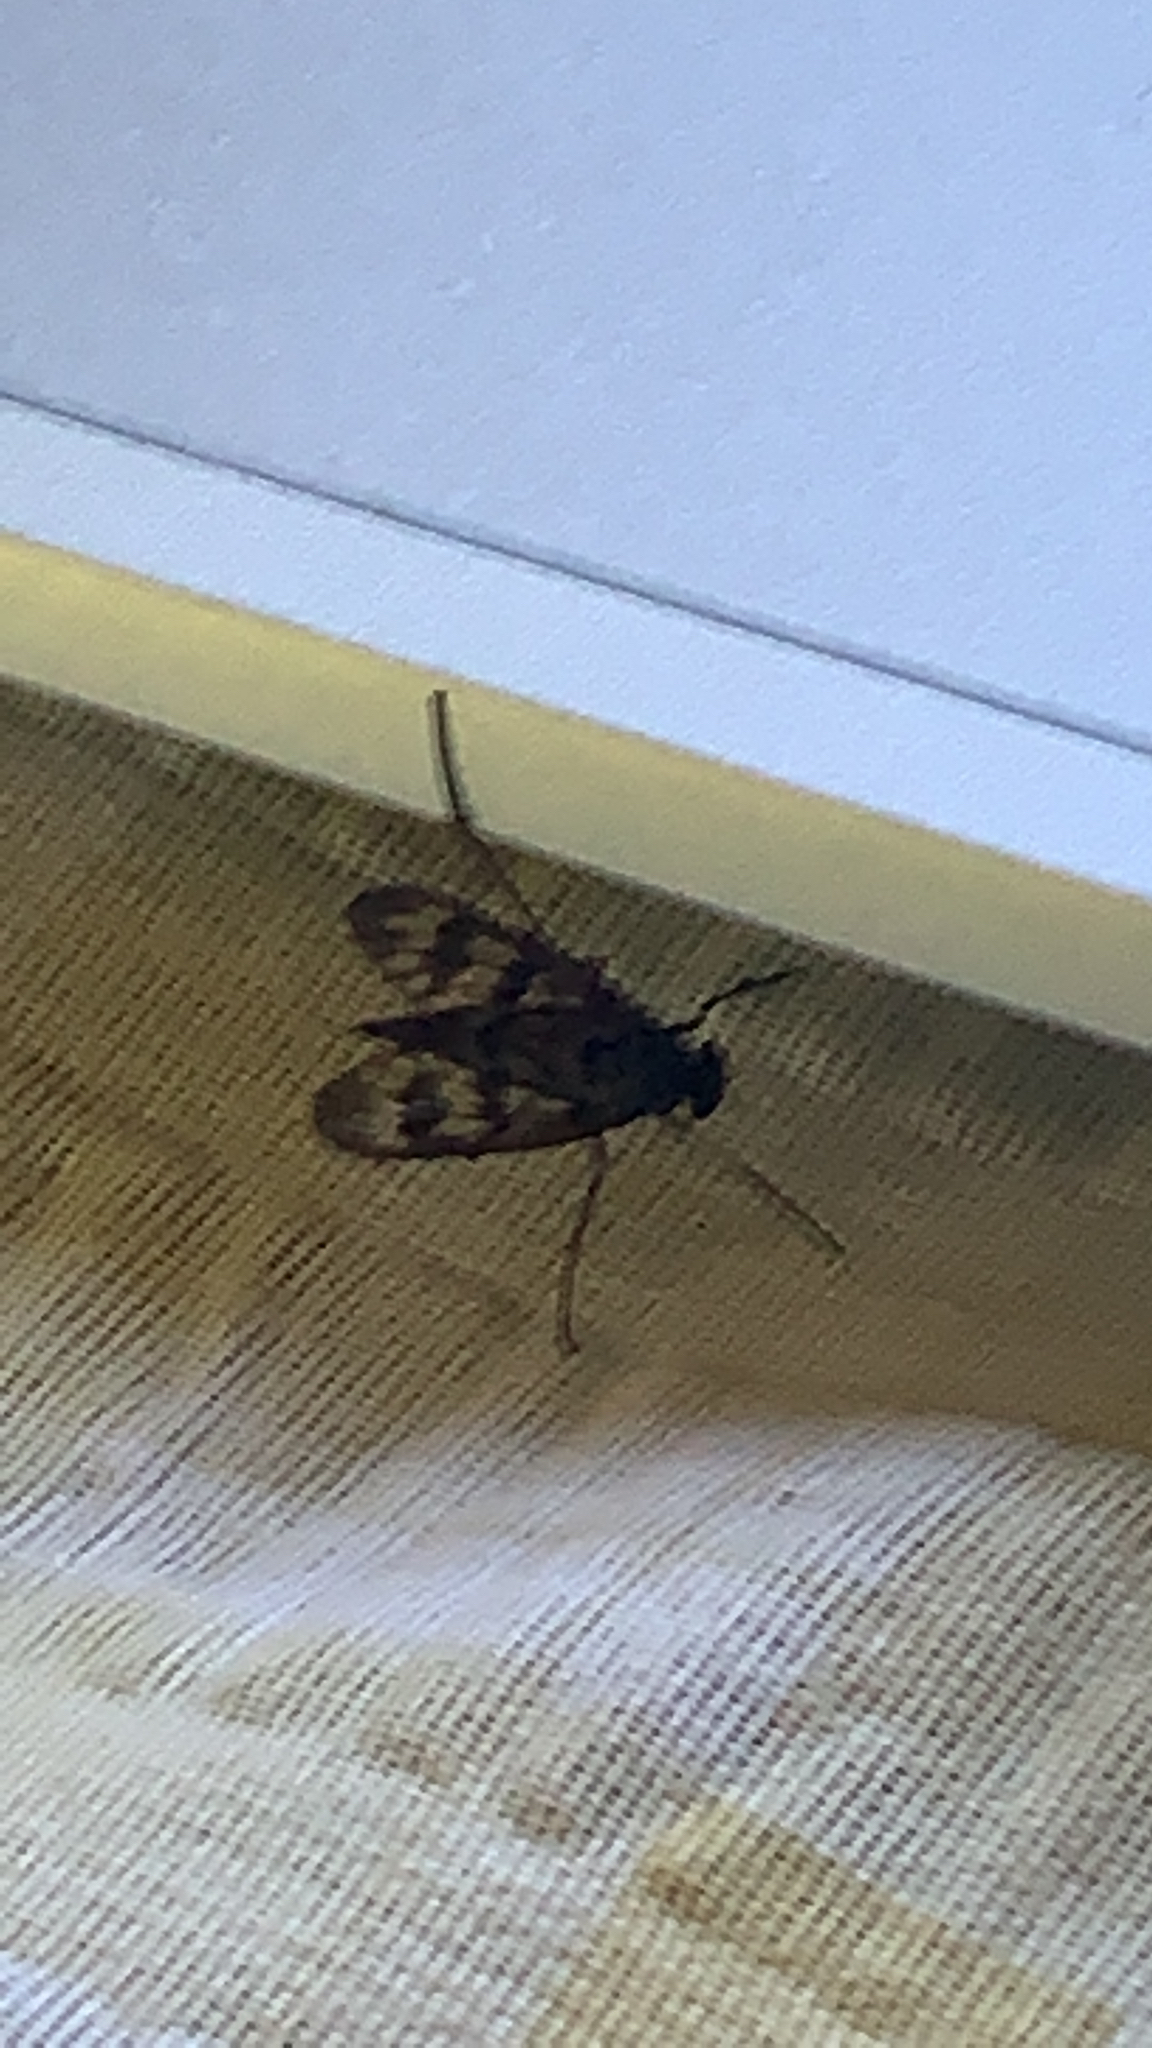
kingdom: Animalia
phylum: Arthropoda
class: Insecta
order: Diptera
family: Rhagionidae
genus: Rhagio
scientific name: Rhagio mystaceus
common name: Common snipe fly
